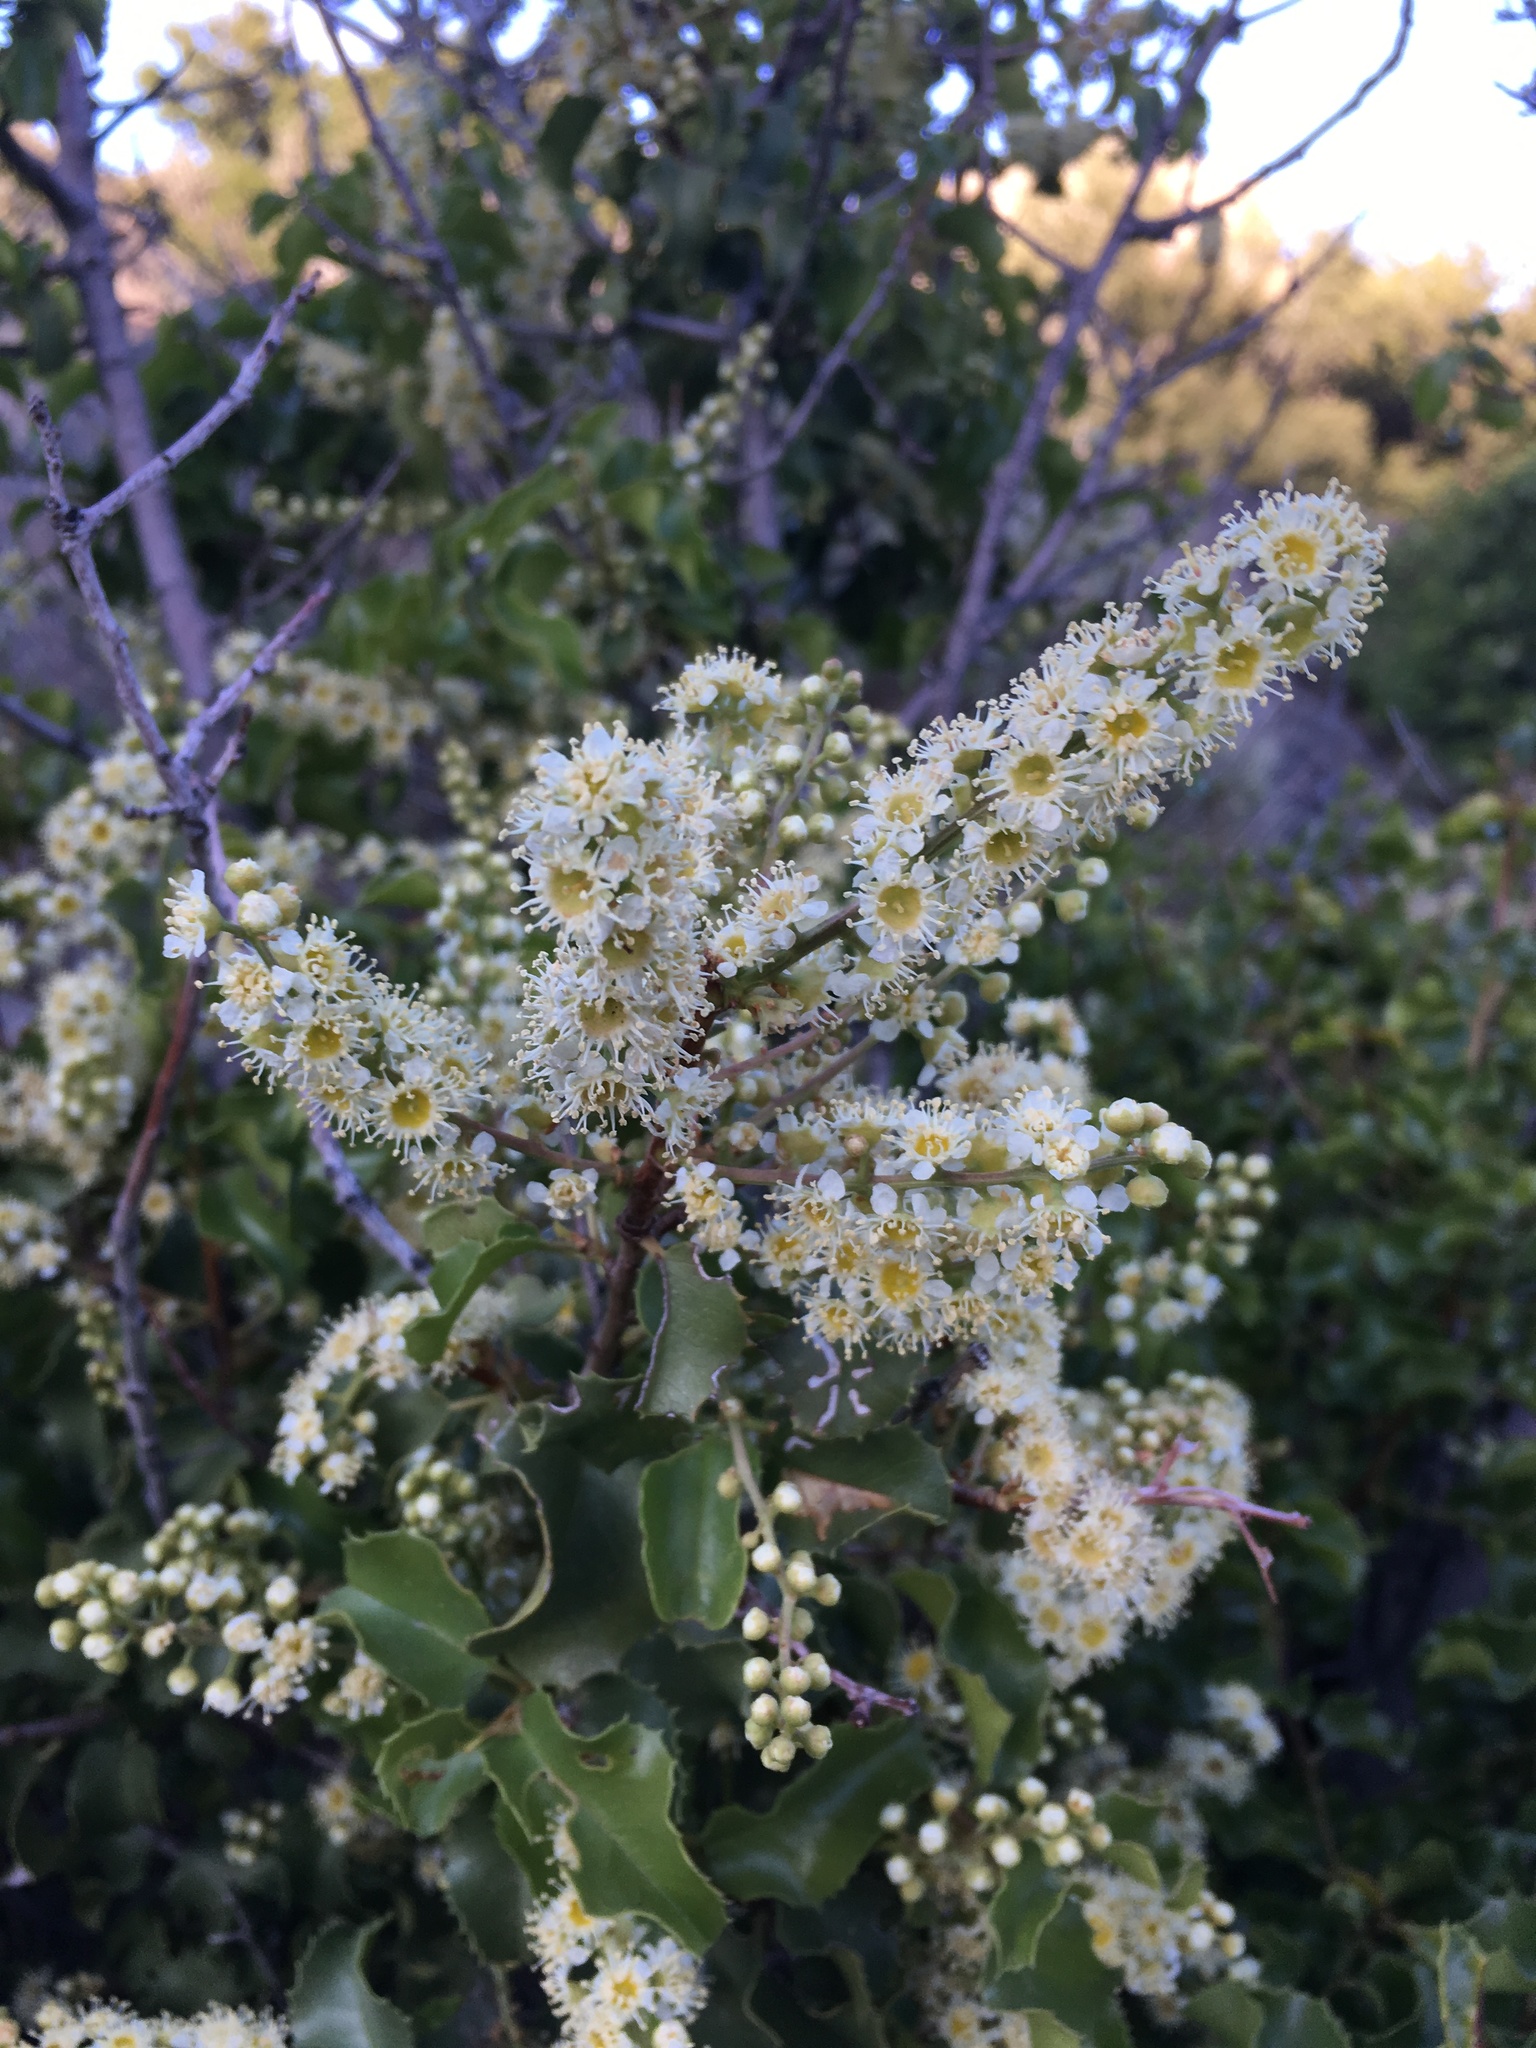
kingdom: Plantae
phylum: Tracheophyta
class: Magnoliopsida
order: Rosales
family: Rosaceae
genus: Prunus
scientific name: Prunus ilicifolia
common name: Hollyleaf cherry
